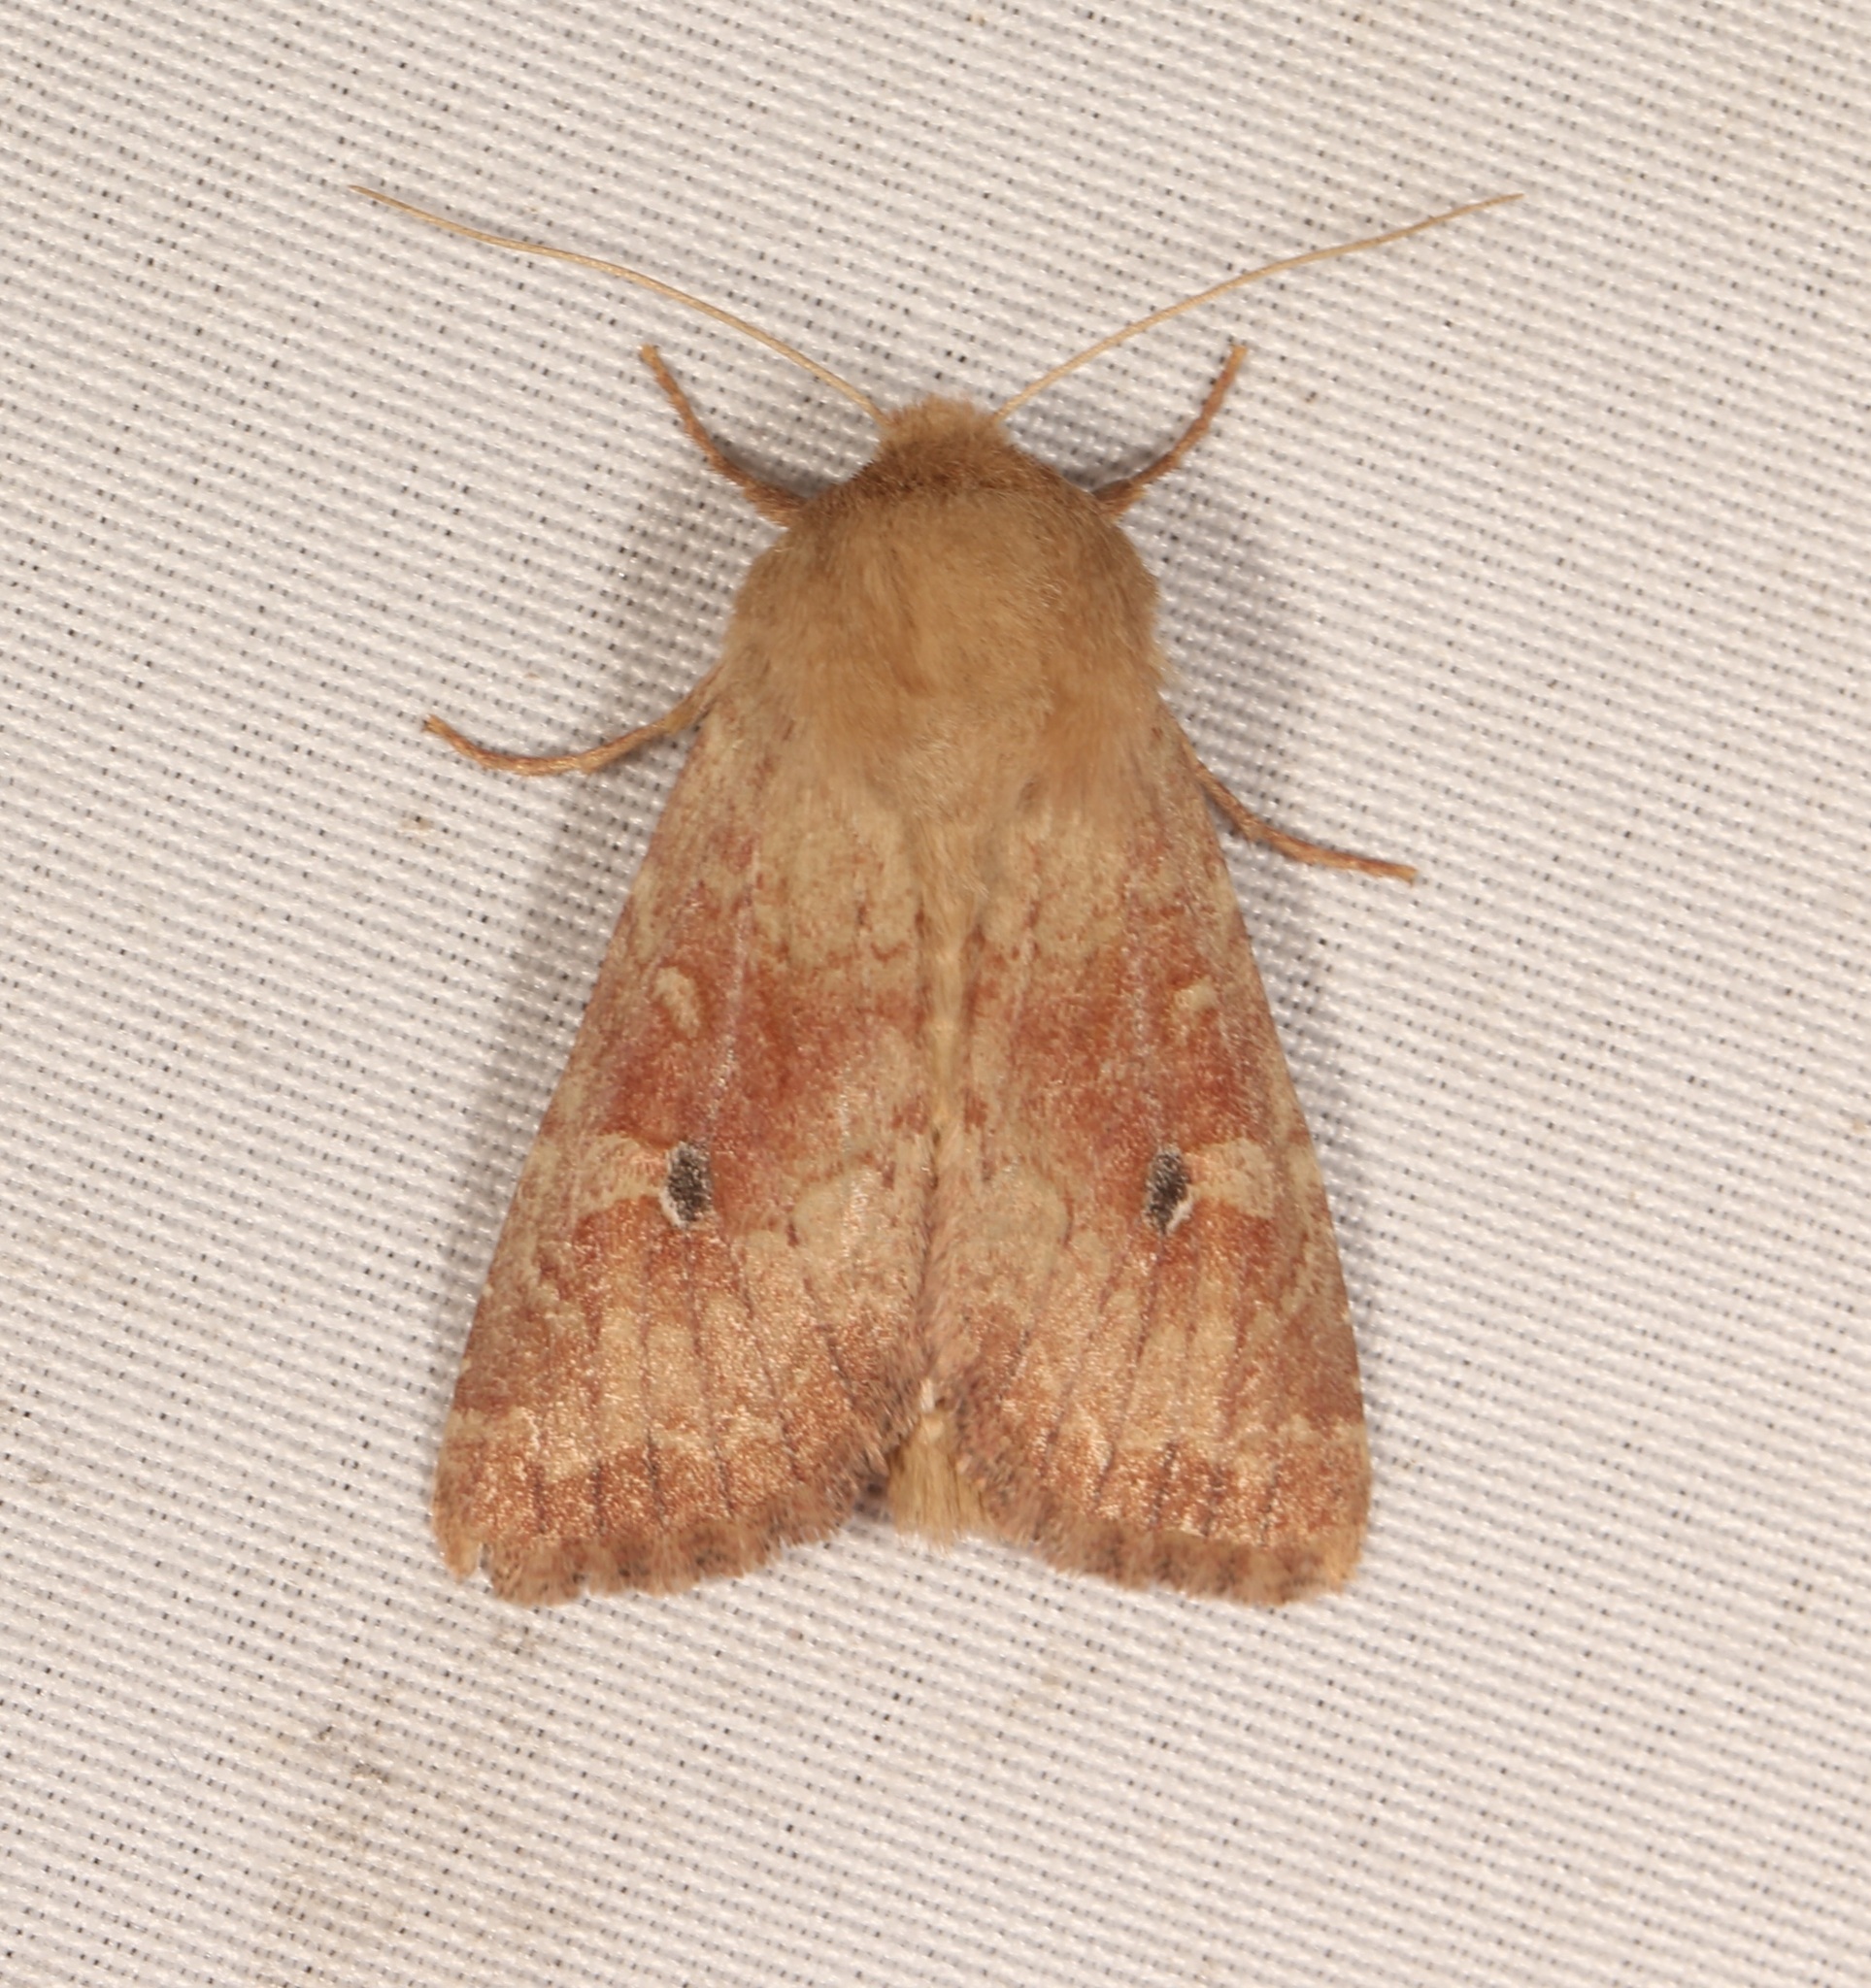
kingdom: Animalia
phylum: Arthropoda
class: Insecta
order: Lepidoptera
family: Noctuidae
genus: Apamea
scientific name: Apamea inficita
